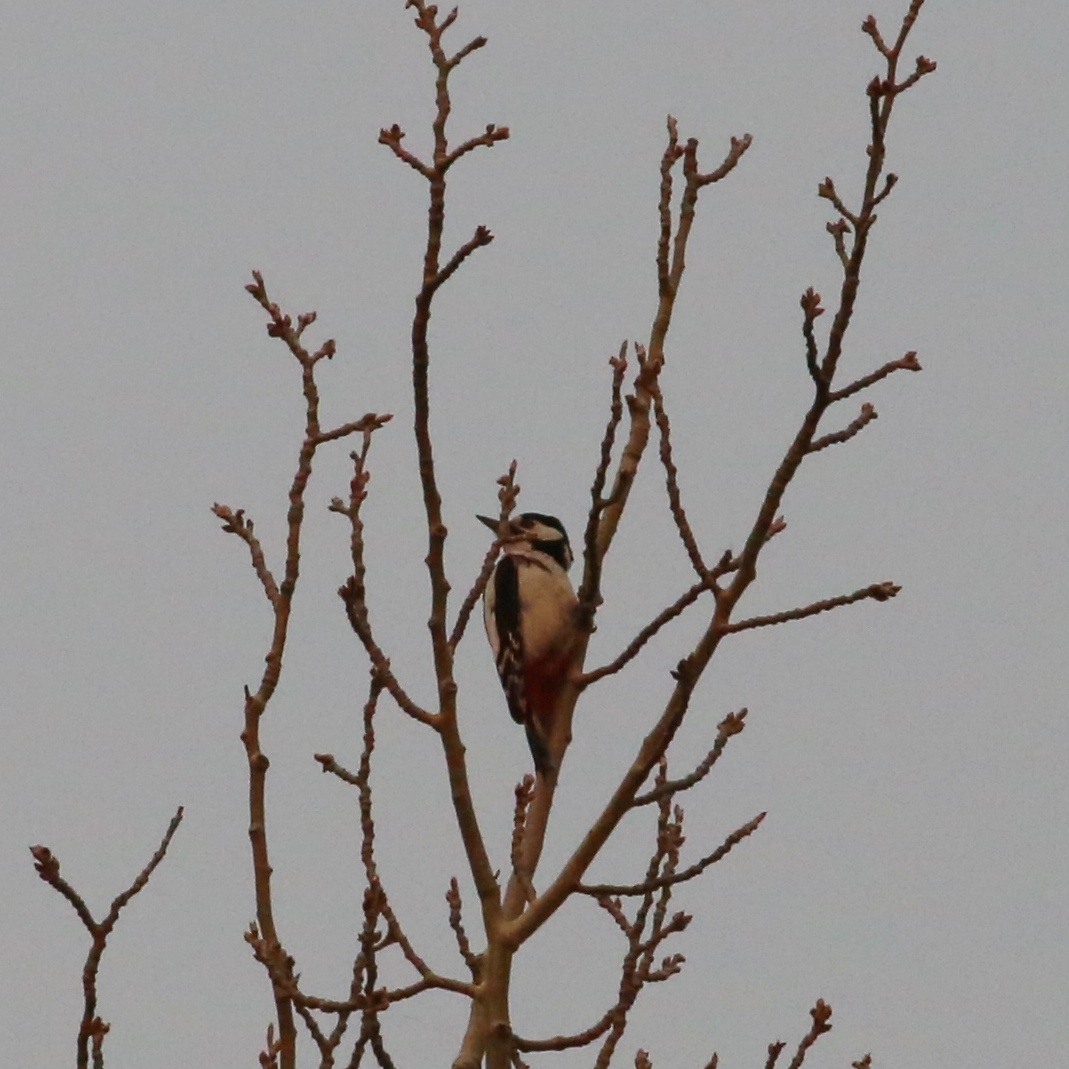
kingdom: Animalia
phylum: Chordata
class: Aves
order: Piciformes
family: Picidae
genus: Dendrocopos
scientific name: Dendrocopos major
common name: Great spotted woodpecker
